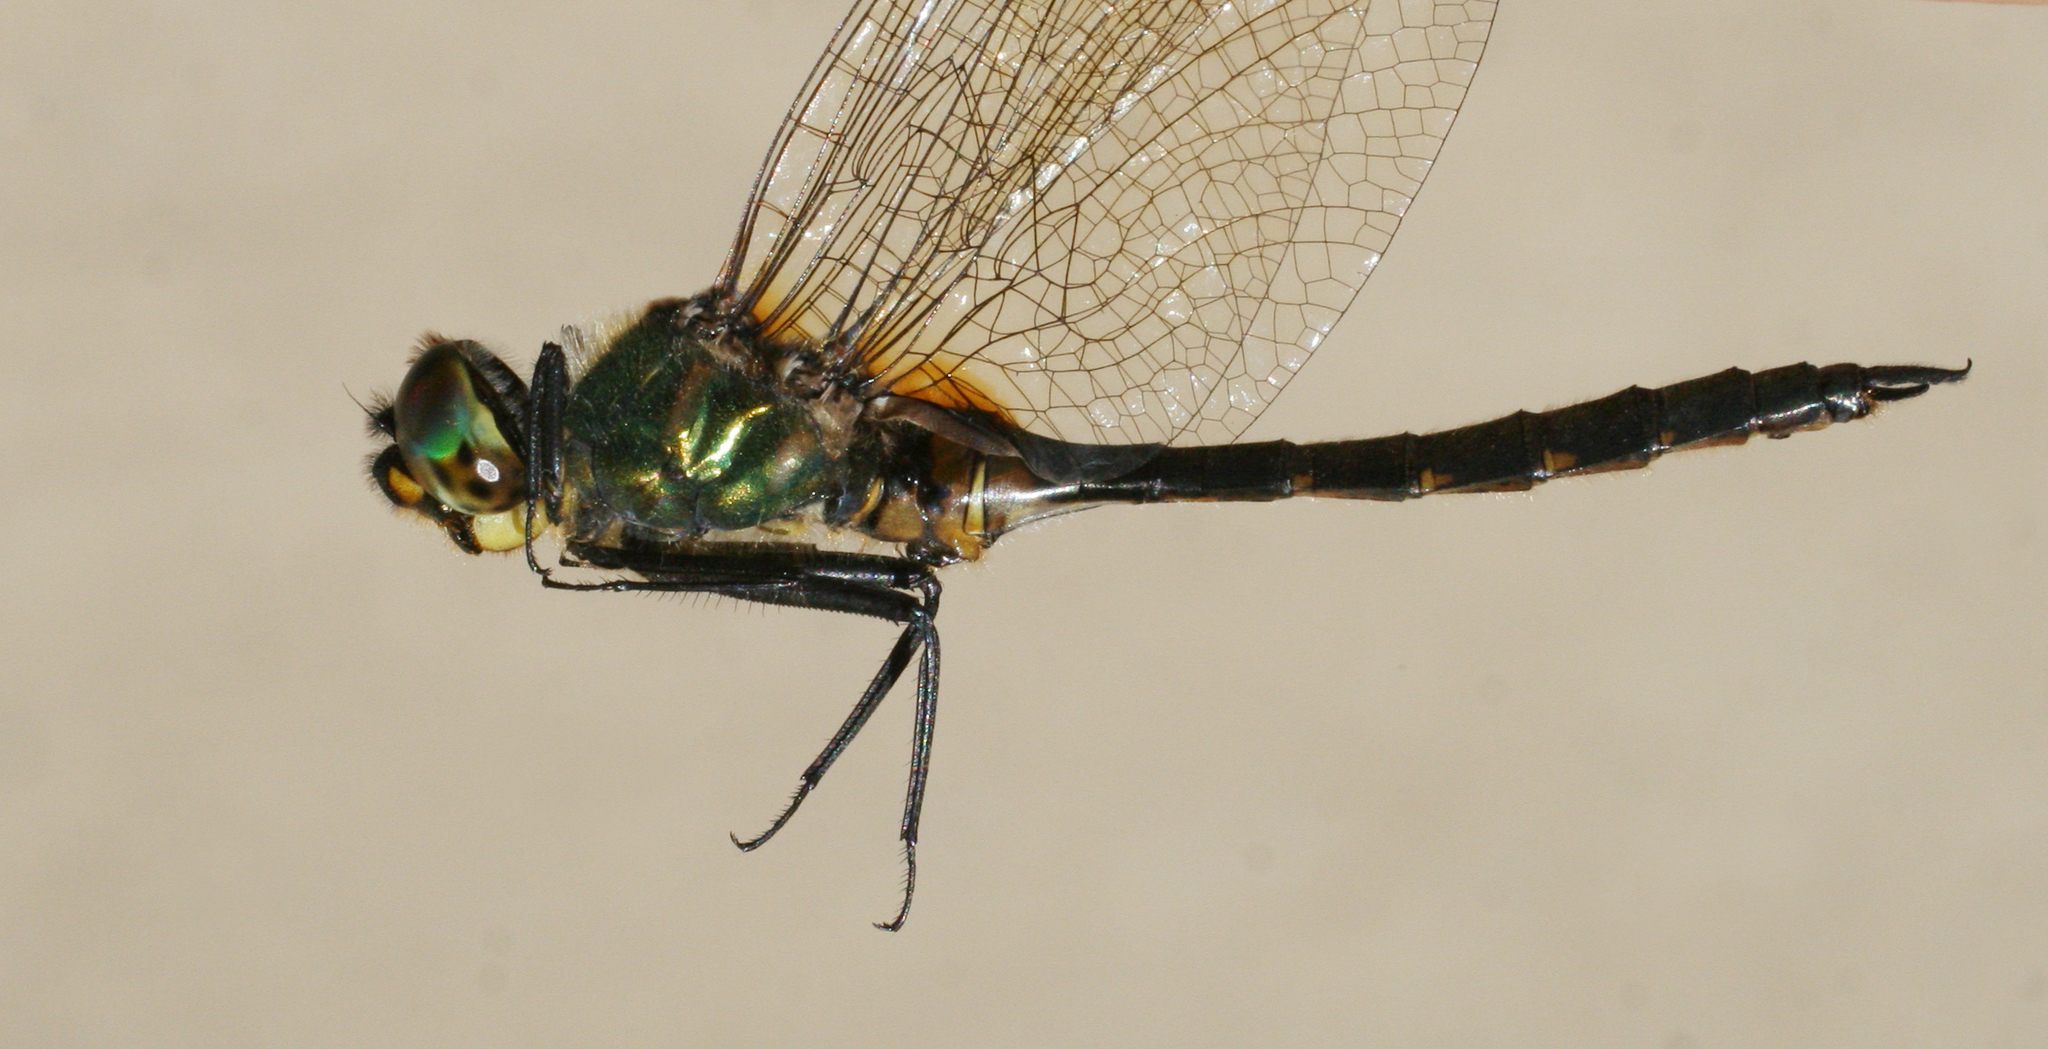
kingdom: Animalia
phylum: Arthropoda
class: Insecta
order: Odonata
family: Corduliidae
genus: Somatochlora
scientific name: Somatochlora flavomaculata
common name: Yellow-spotted emerald
